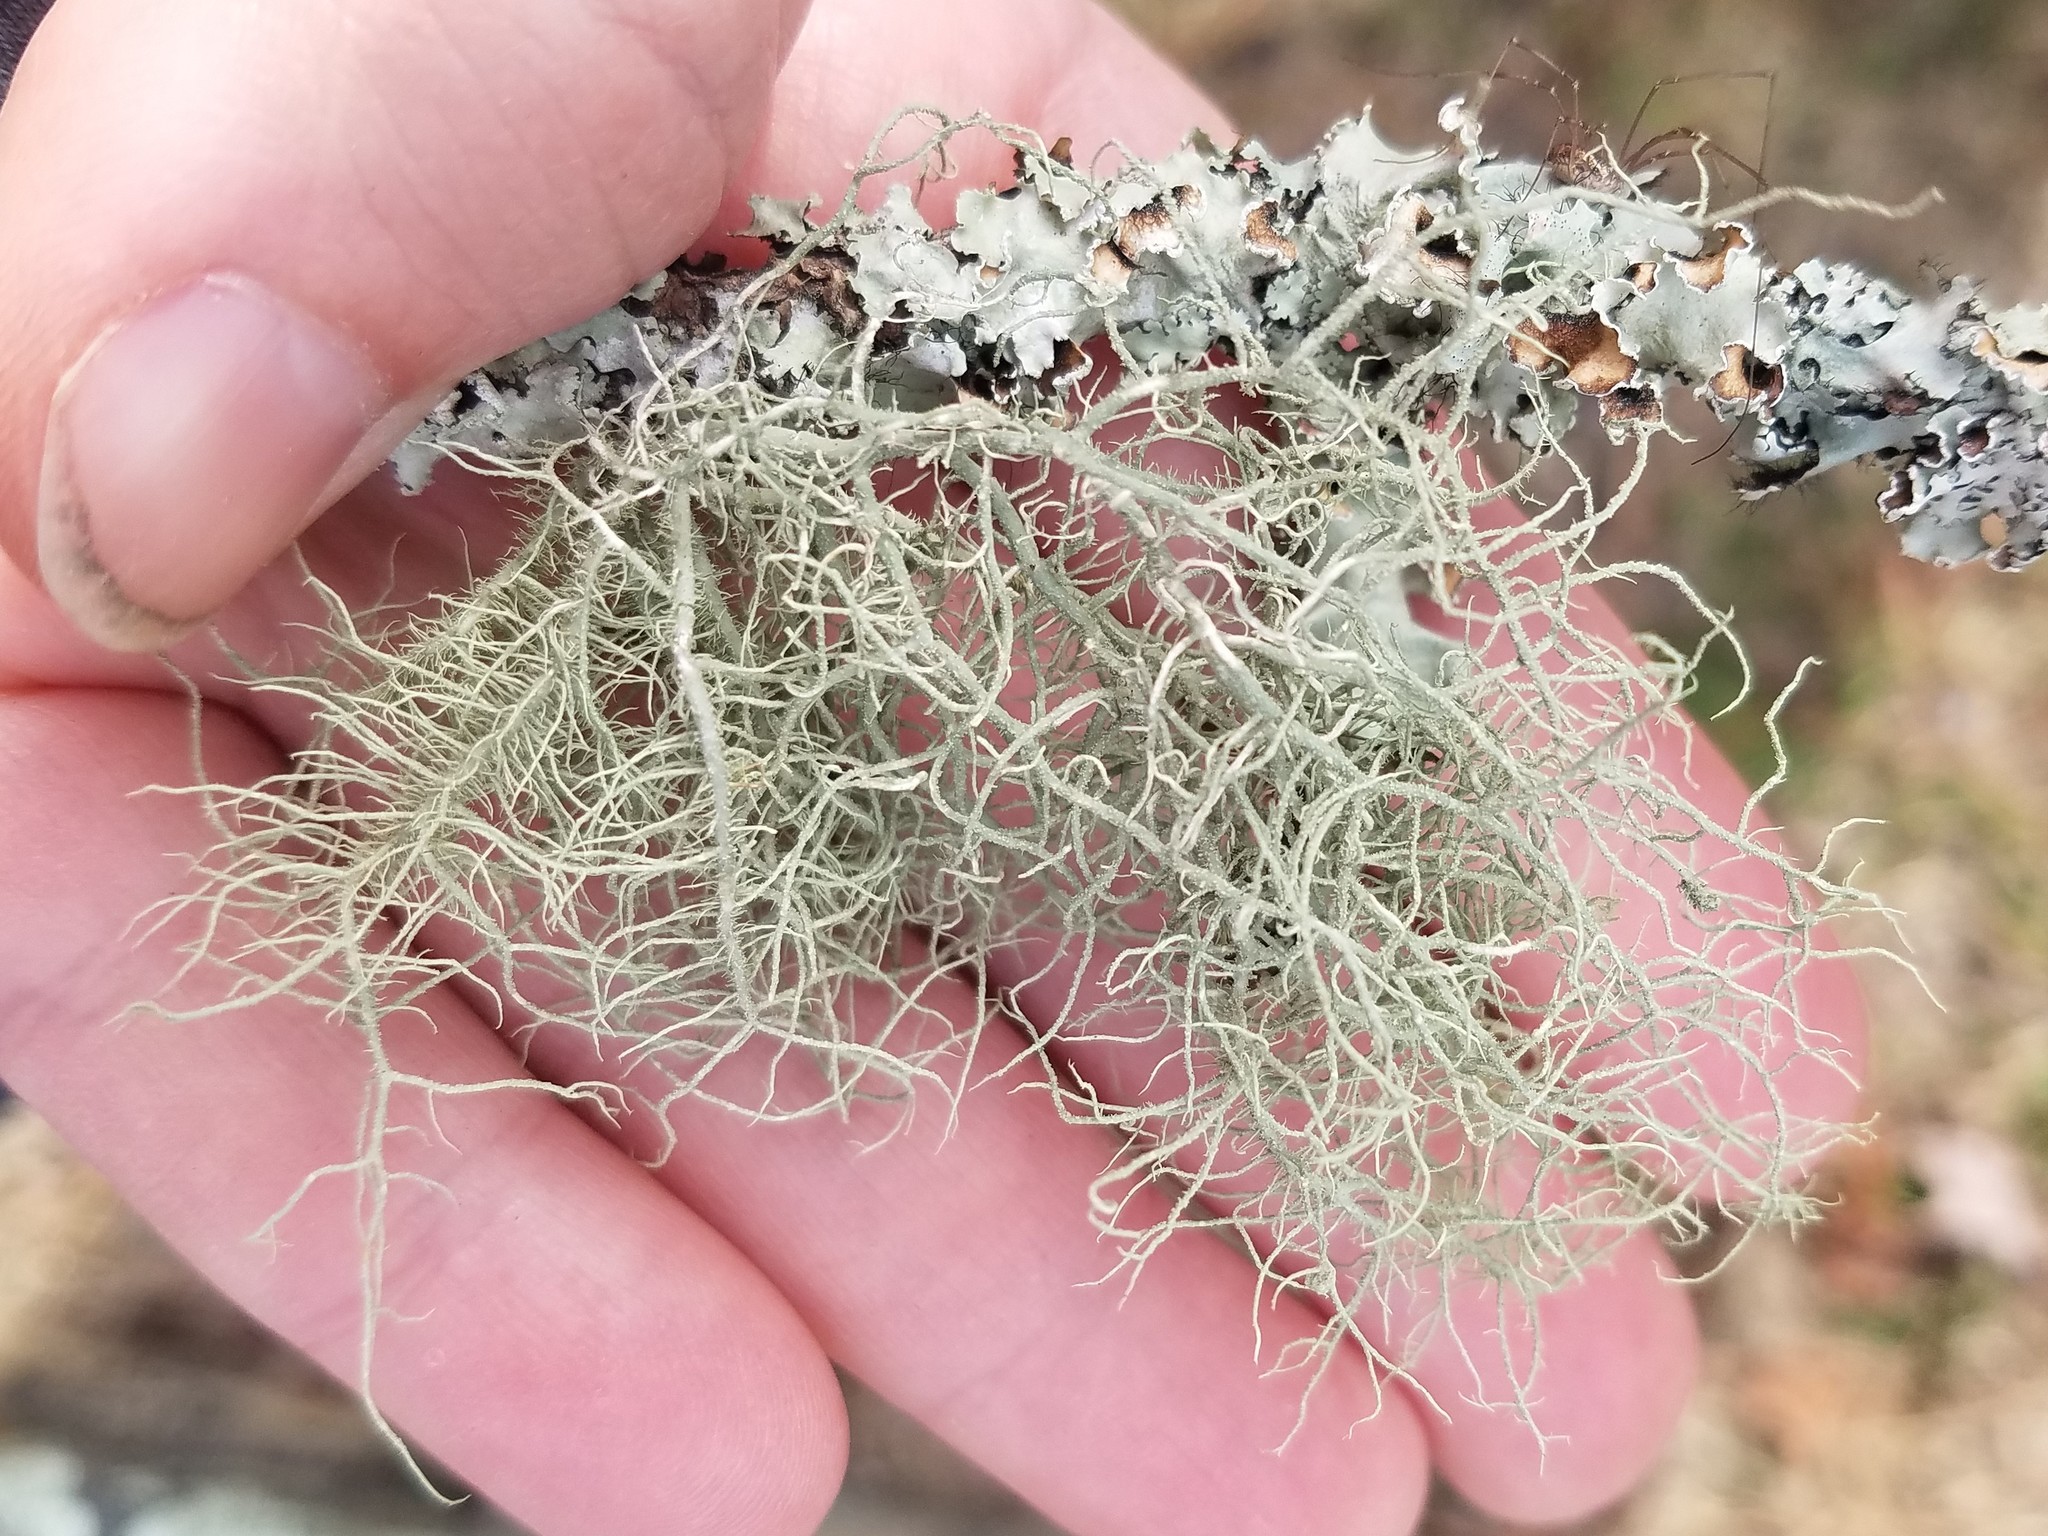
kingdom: Fungi
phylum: Ascomycota
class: Lecanoromycetes
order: Lecanorales
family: Parmeliaceae
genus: Usnea
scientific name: Usnea mutabilis
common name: Bloody beard
